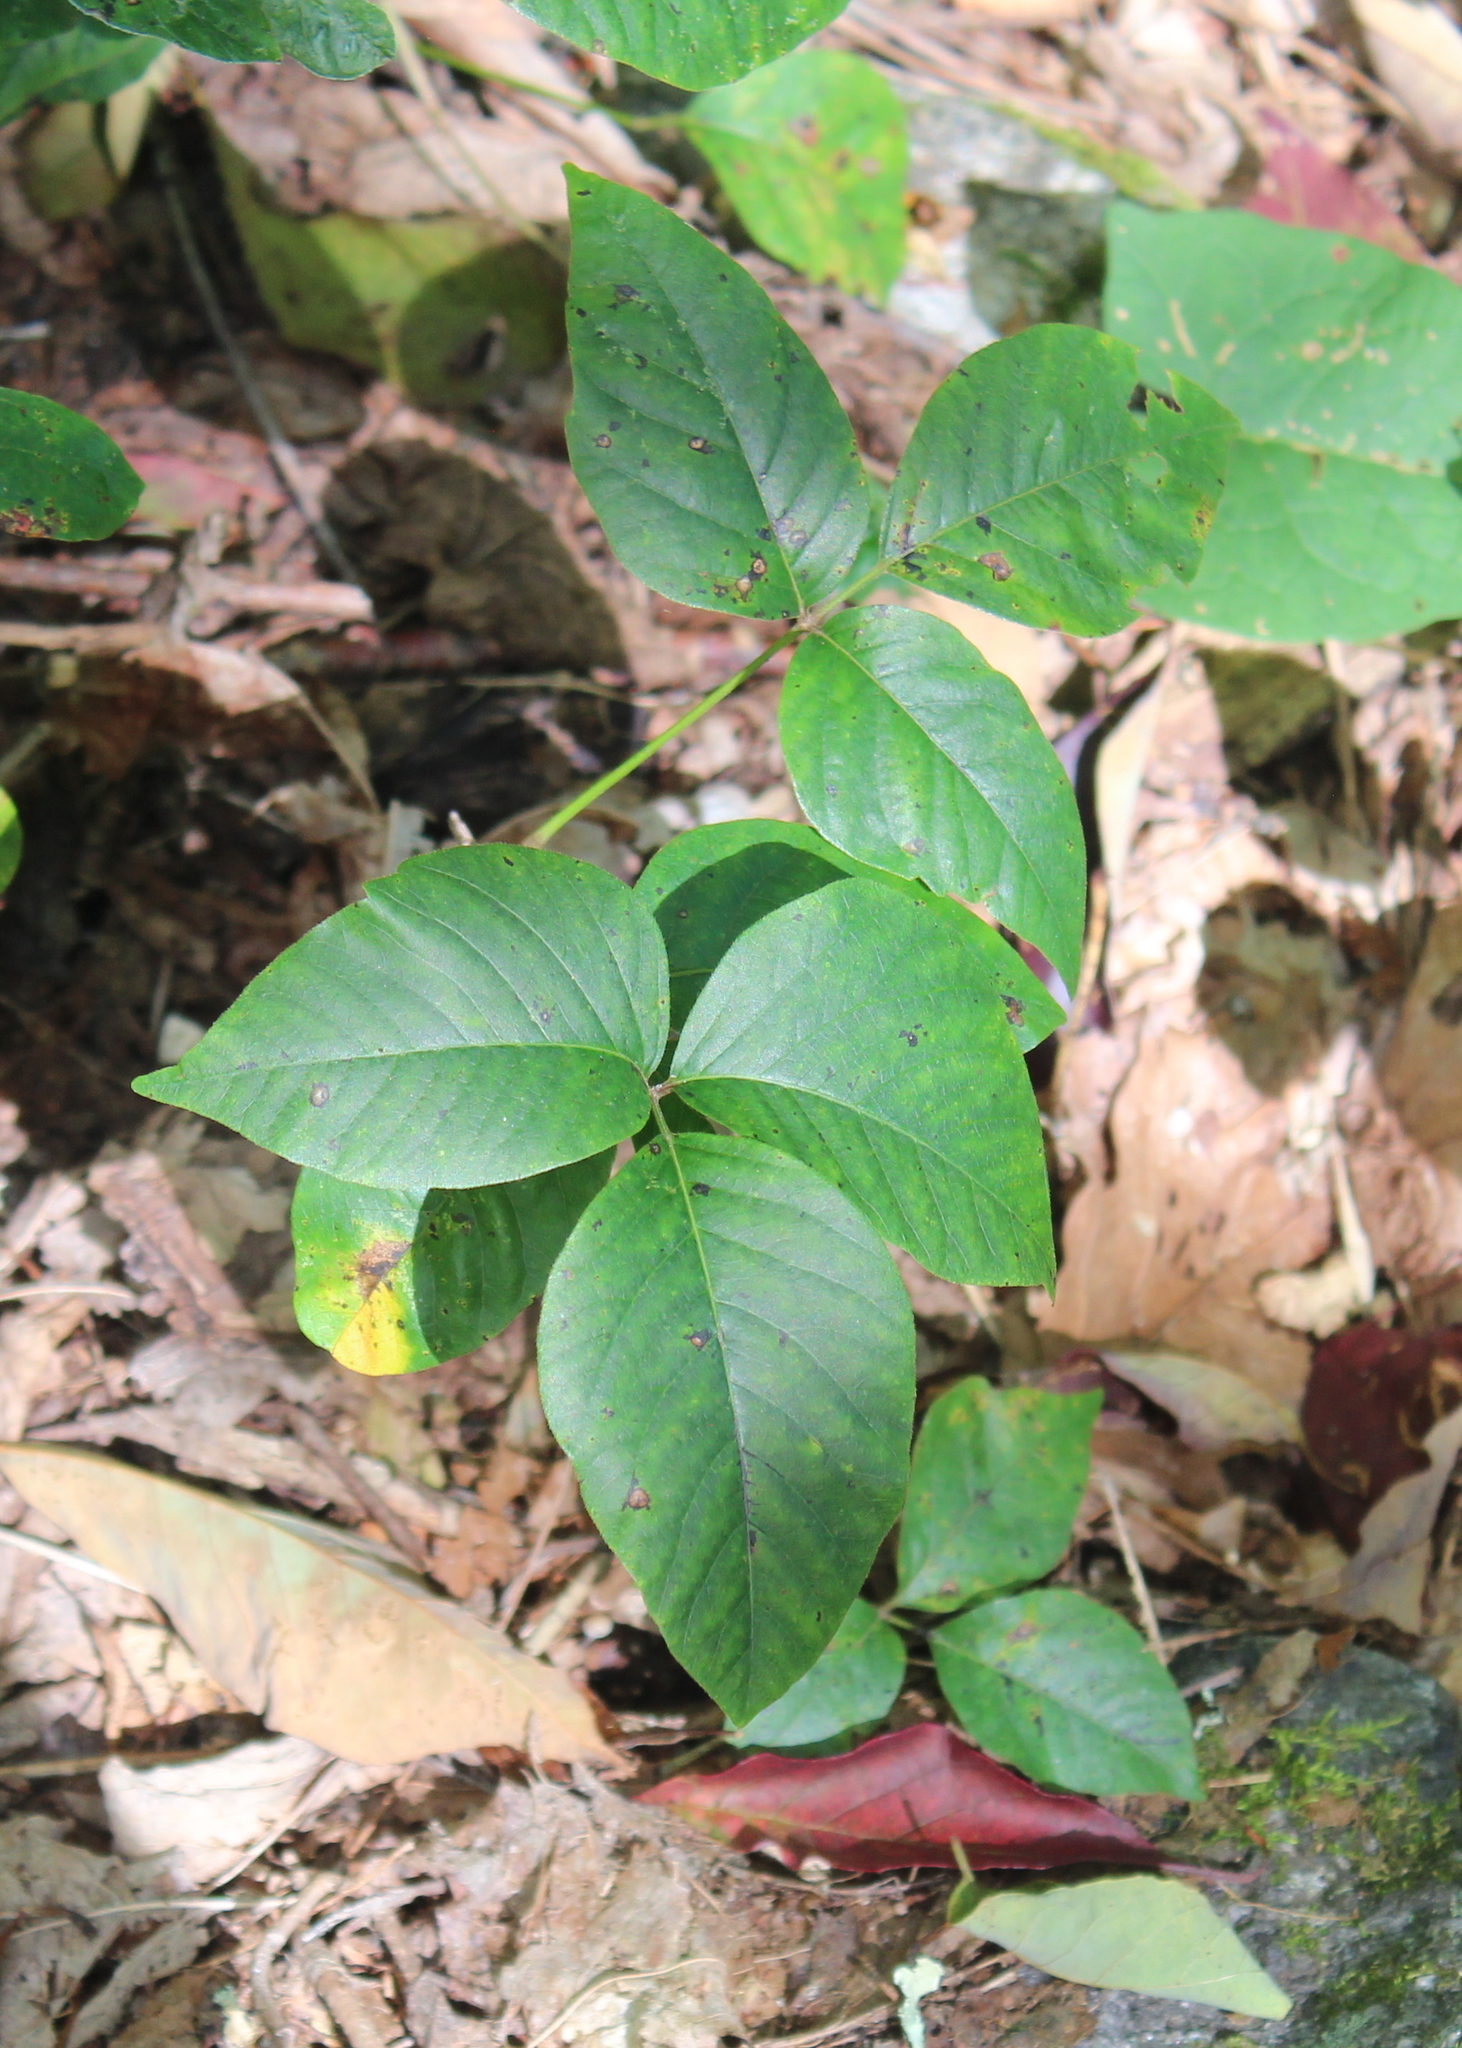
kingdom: Plantae
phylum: Tracheophyta
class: Magnoliopsida
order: Sapindales
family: Anacardiaceae
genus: Toxicodendron
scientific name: Toxicodendron radicans
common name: Poison ivy
